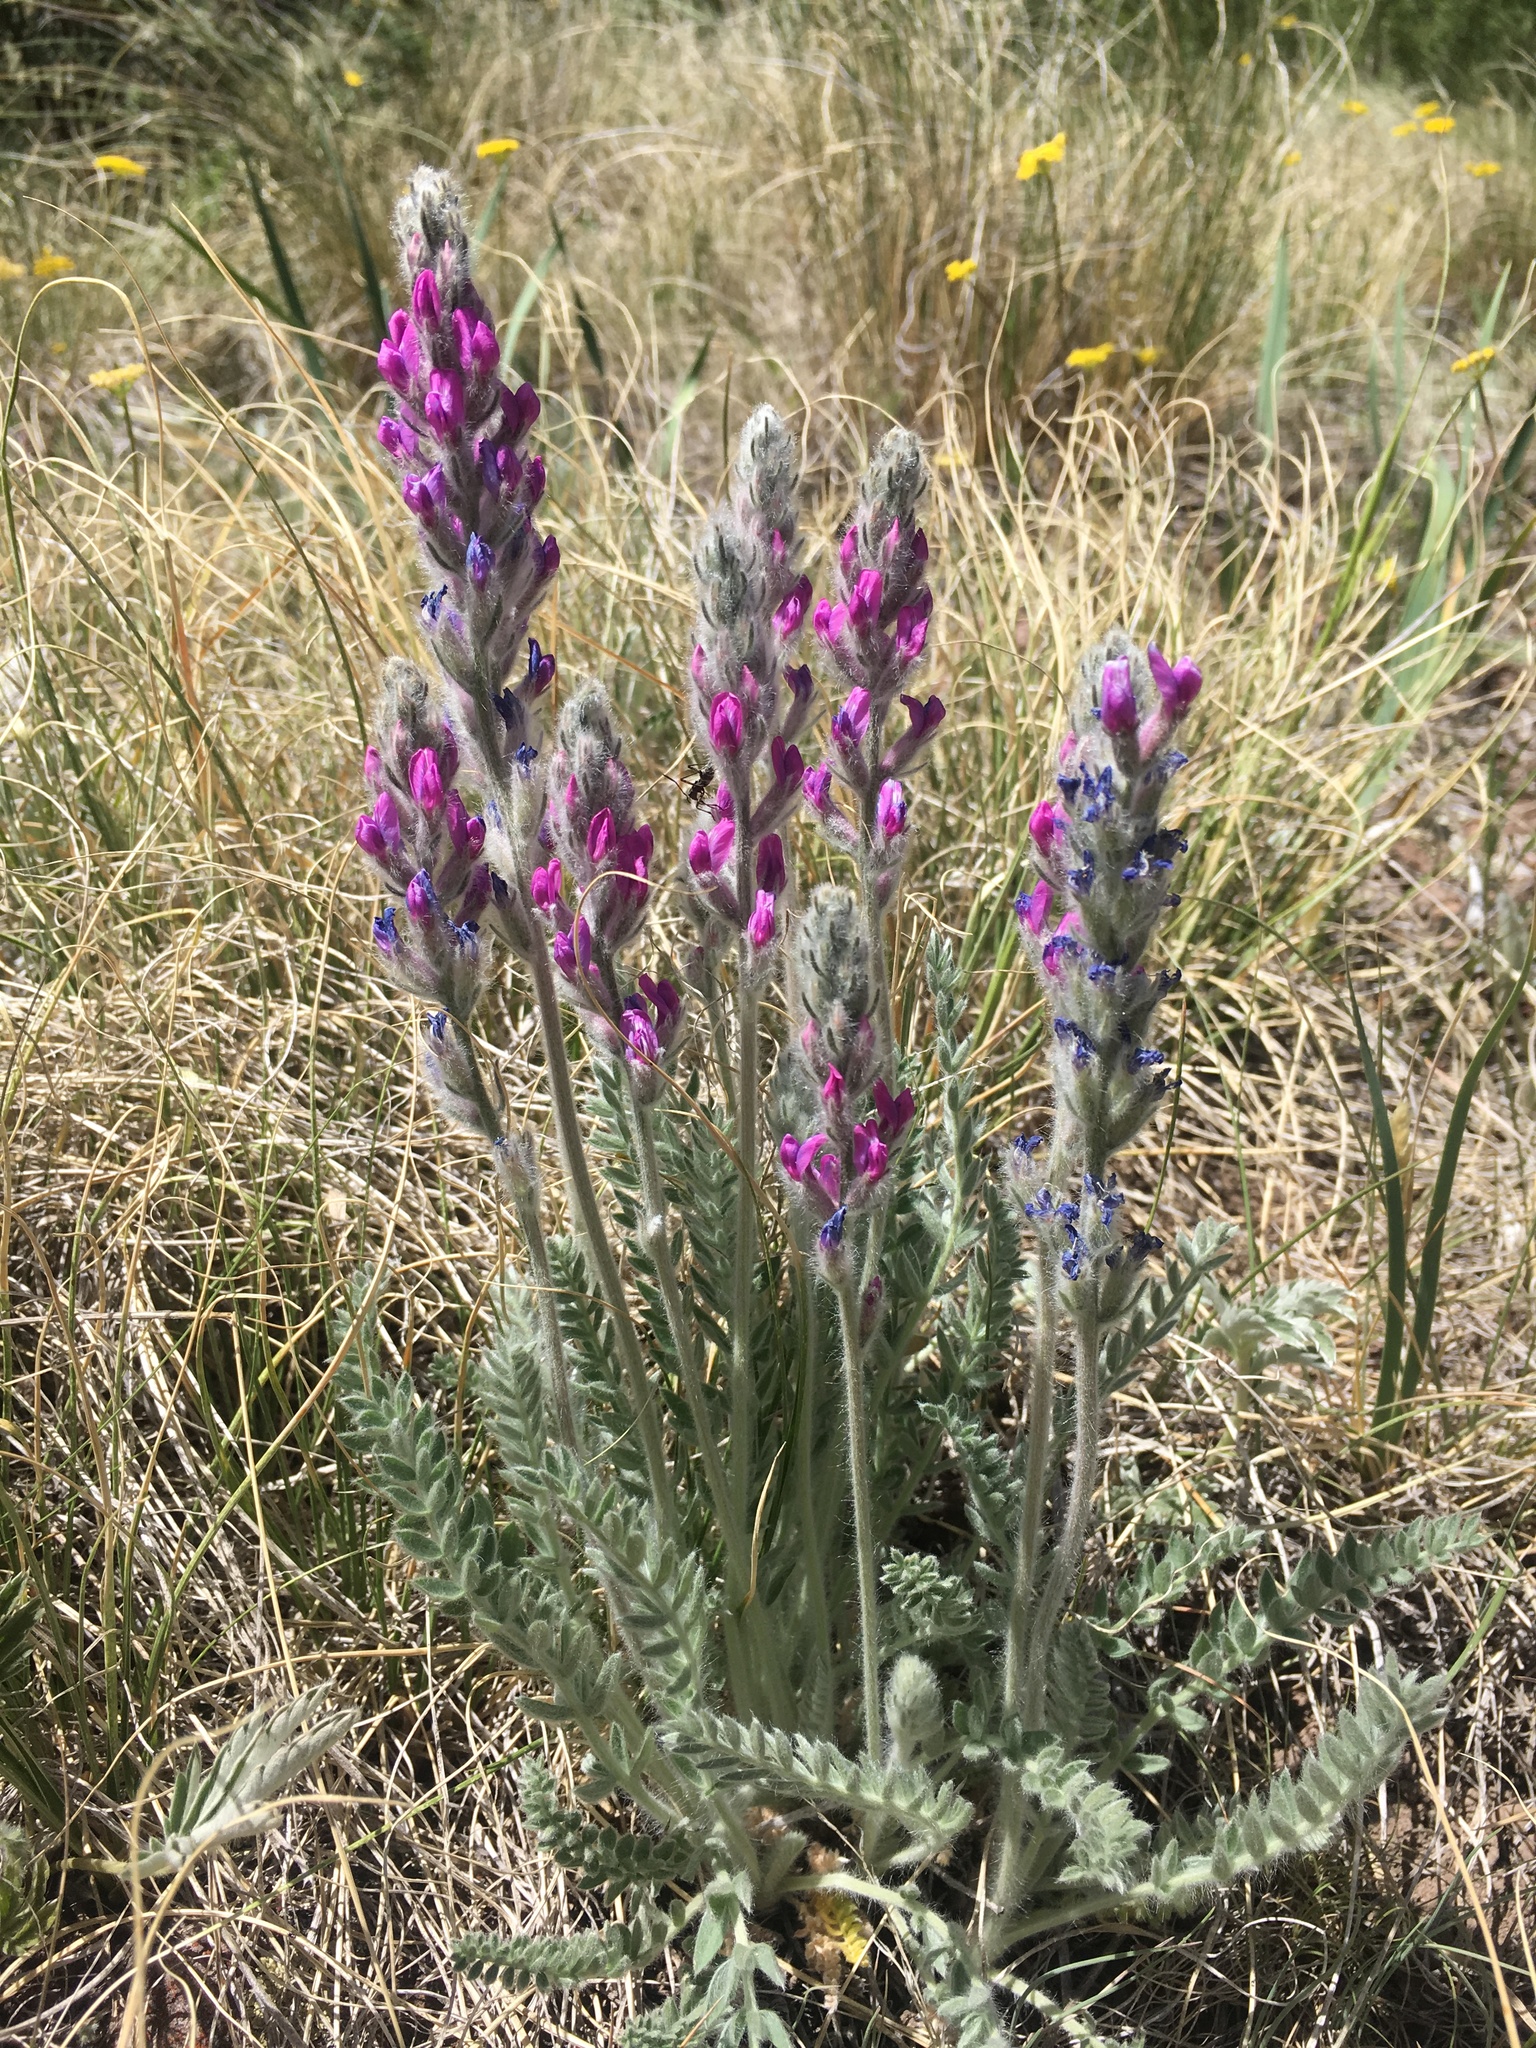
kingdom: Plantae
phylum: Tracheophyta
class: Magnoliopsida
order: Fabales
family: Fabaceae
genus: Oxytropis
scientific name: Oxytropis splendens
